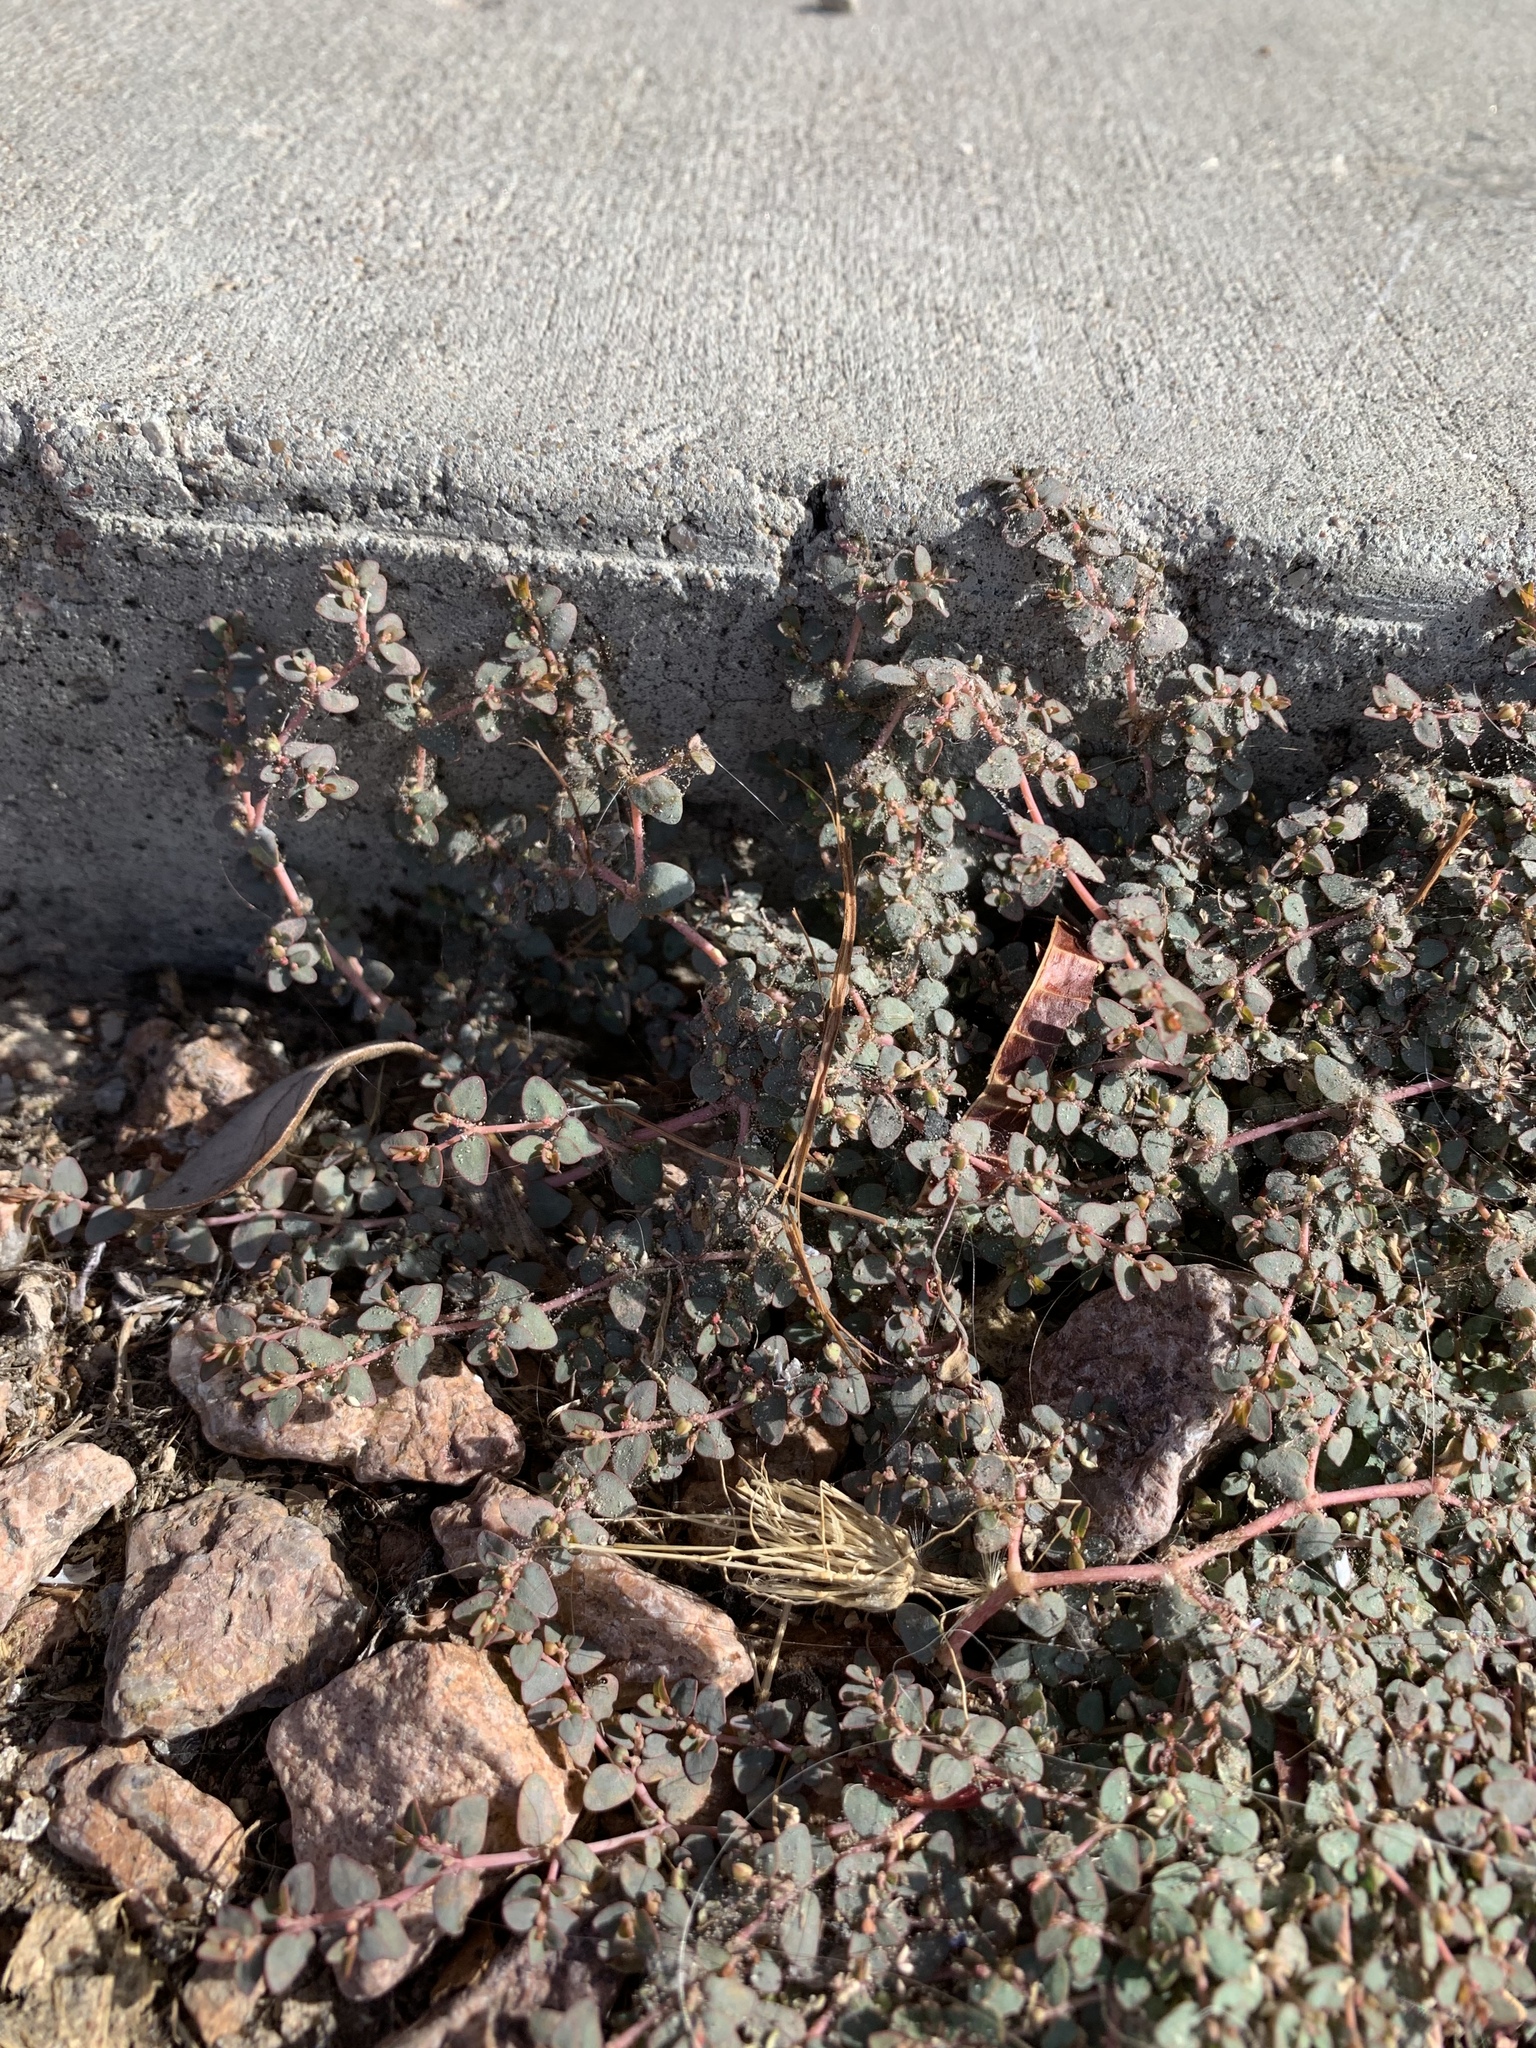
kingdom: Plantae
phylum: Tracheophyta
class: Magnoliopsida
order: Malpighiales
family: Euphorbiaceae
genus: Euphorbia
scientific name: Euphorbia micromera
